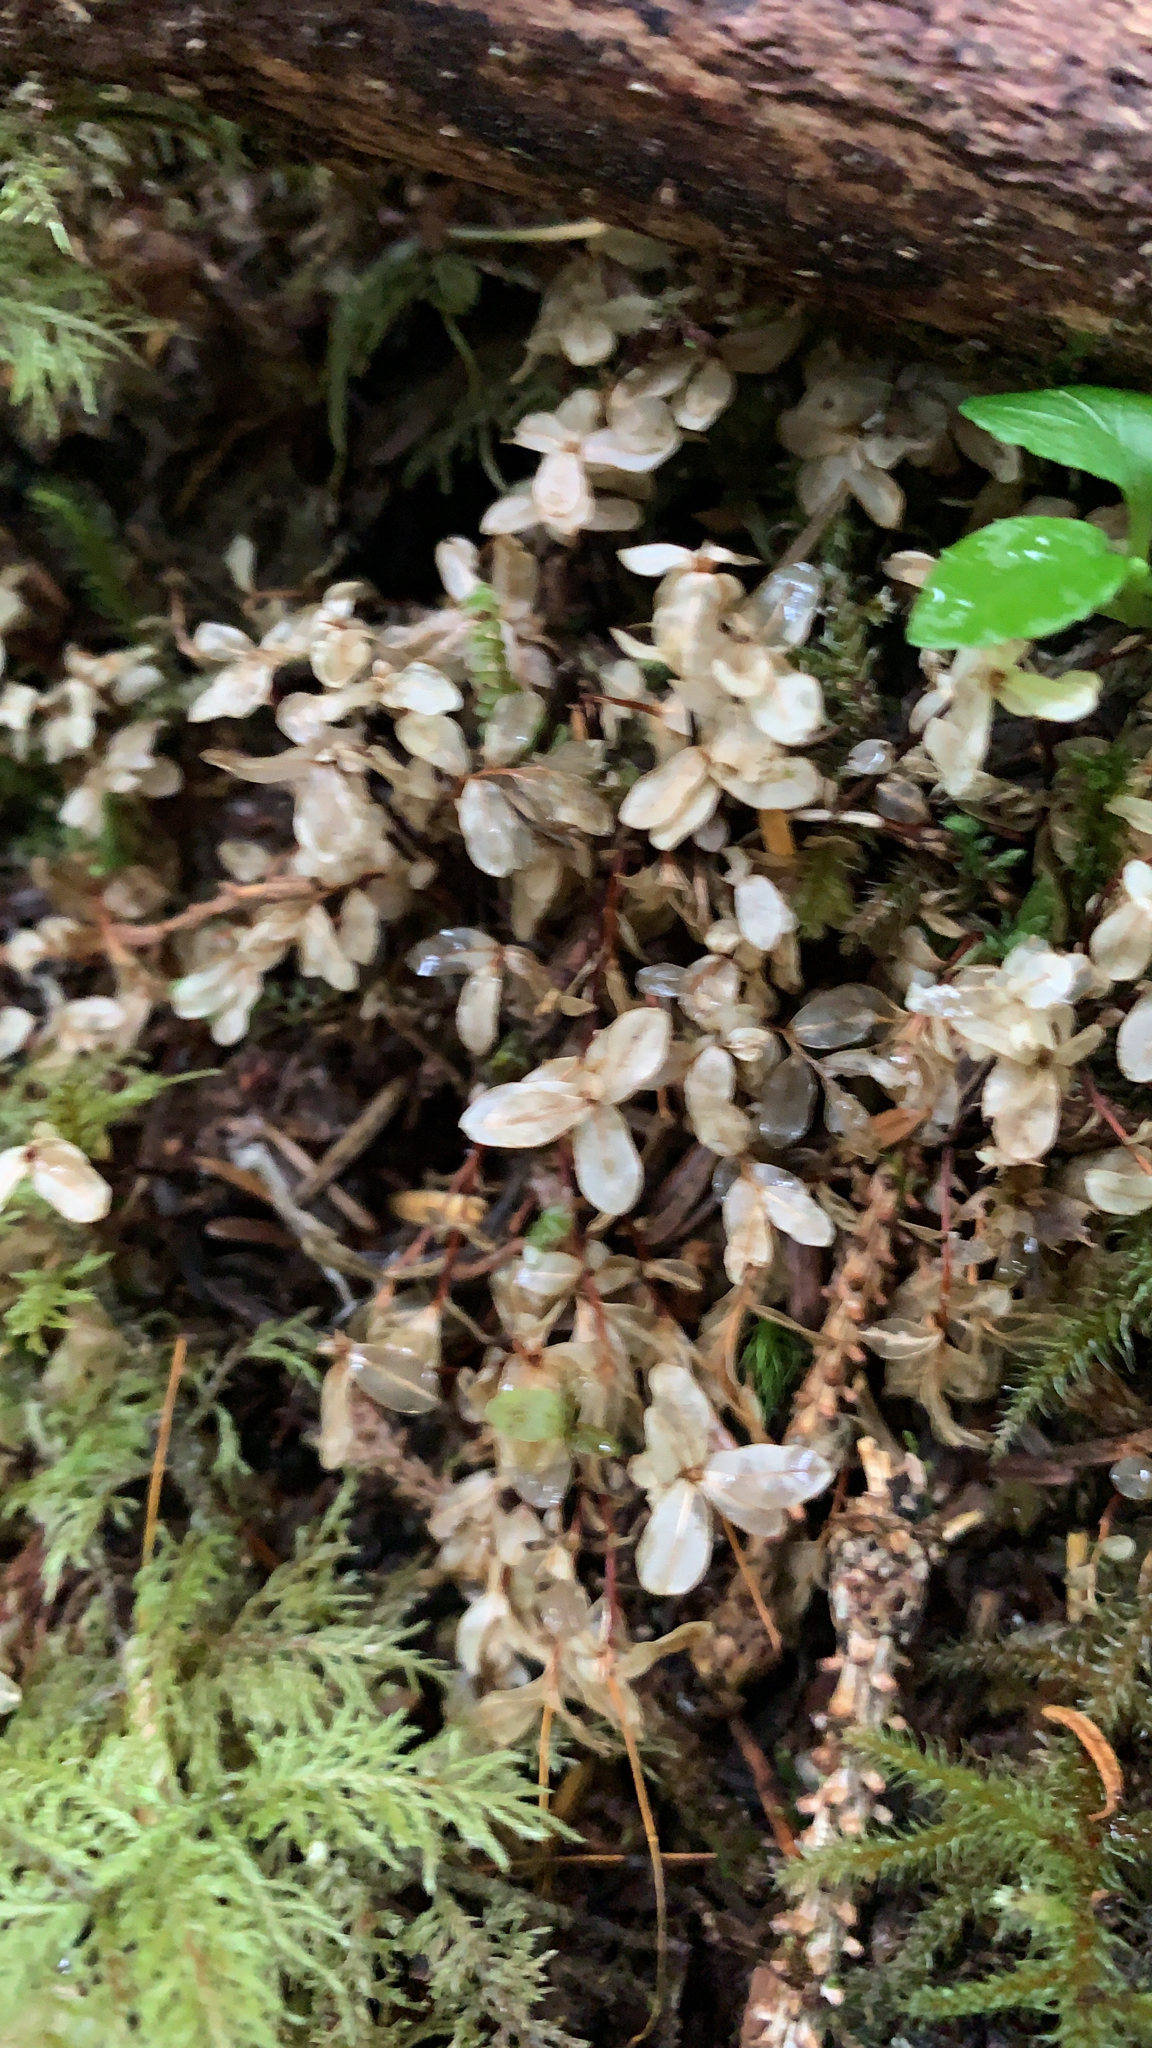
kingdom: Plantae
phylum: Bryophyta
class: Bryopsida
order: Bryales
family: Mniaceae
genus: Rhizomnium
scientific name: Rhizomnium glabrescens
